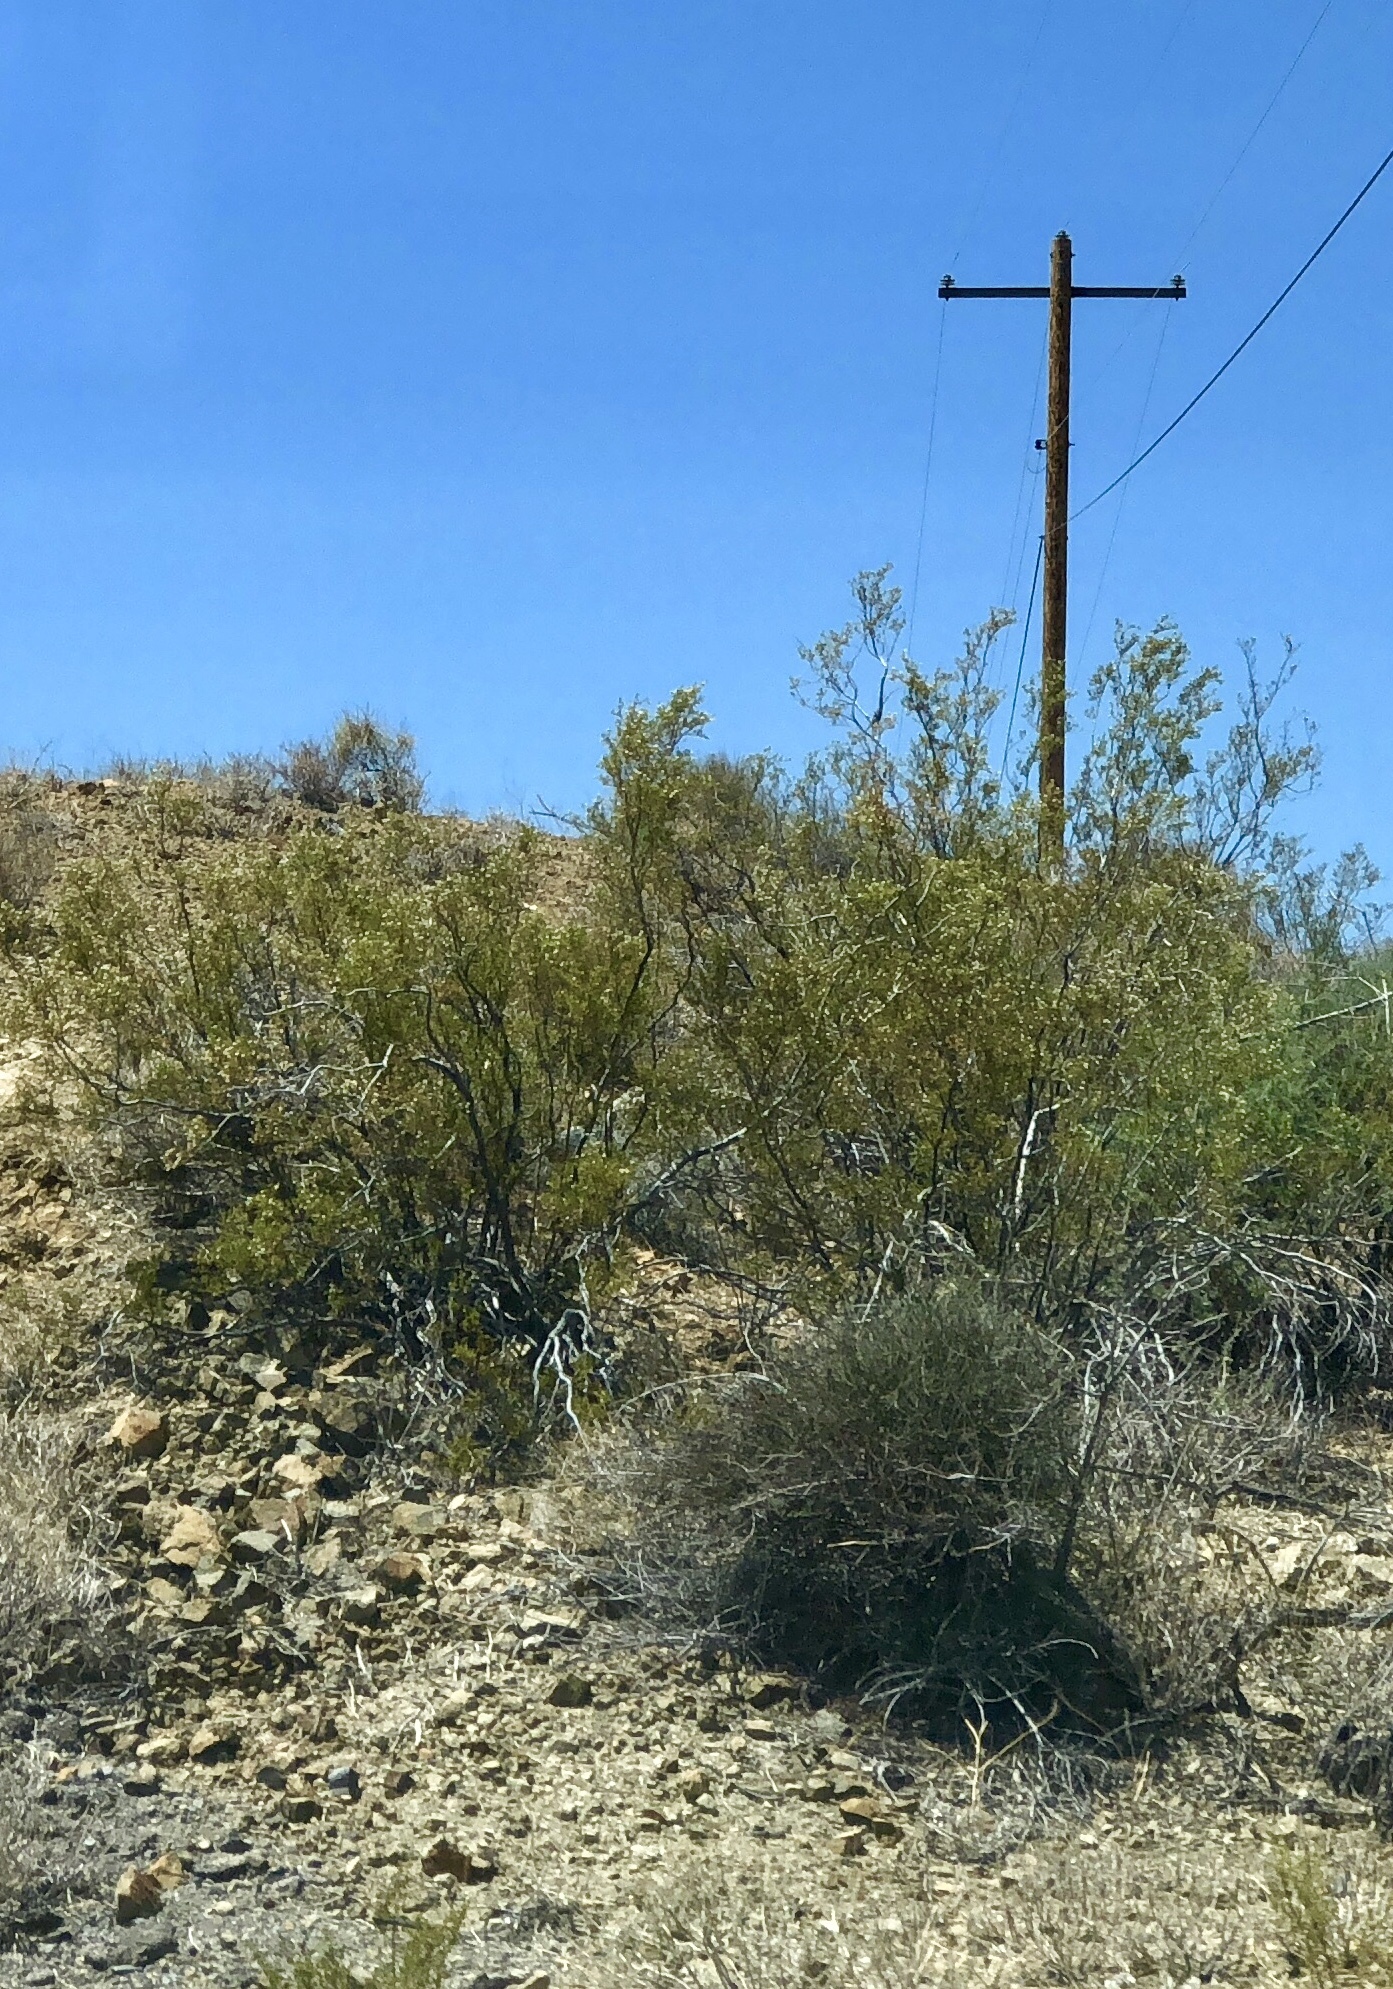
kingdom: Plantae
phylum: Tracheophyta
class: Magnoliopsida
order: Zygophyllales
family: Zygophyllaceae
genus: Larrea
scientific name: Larrea tridentata
